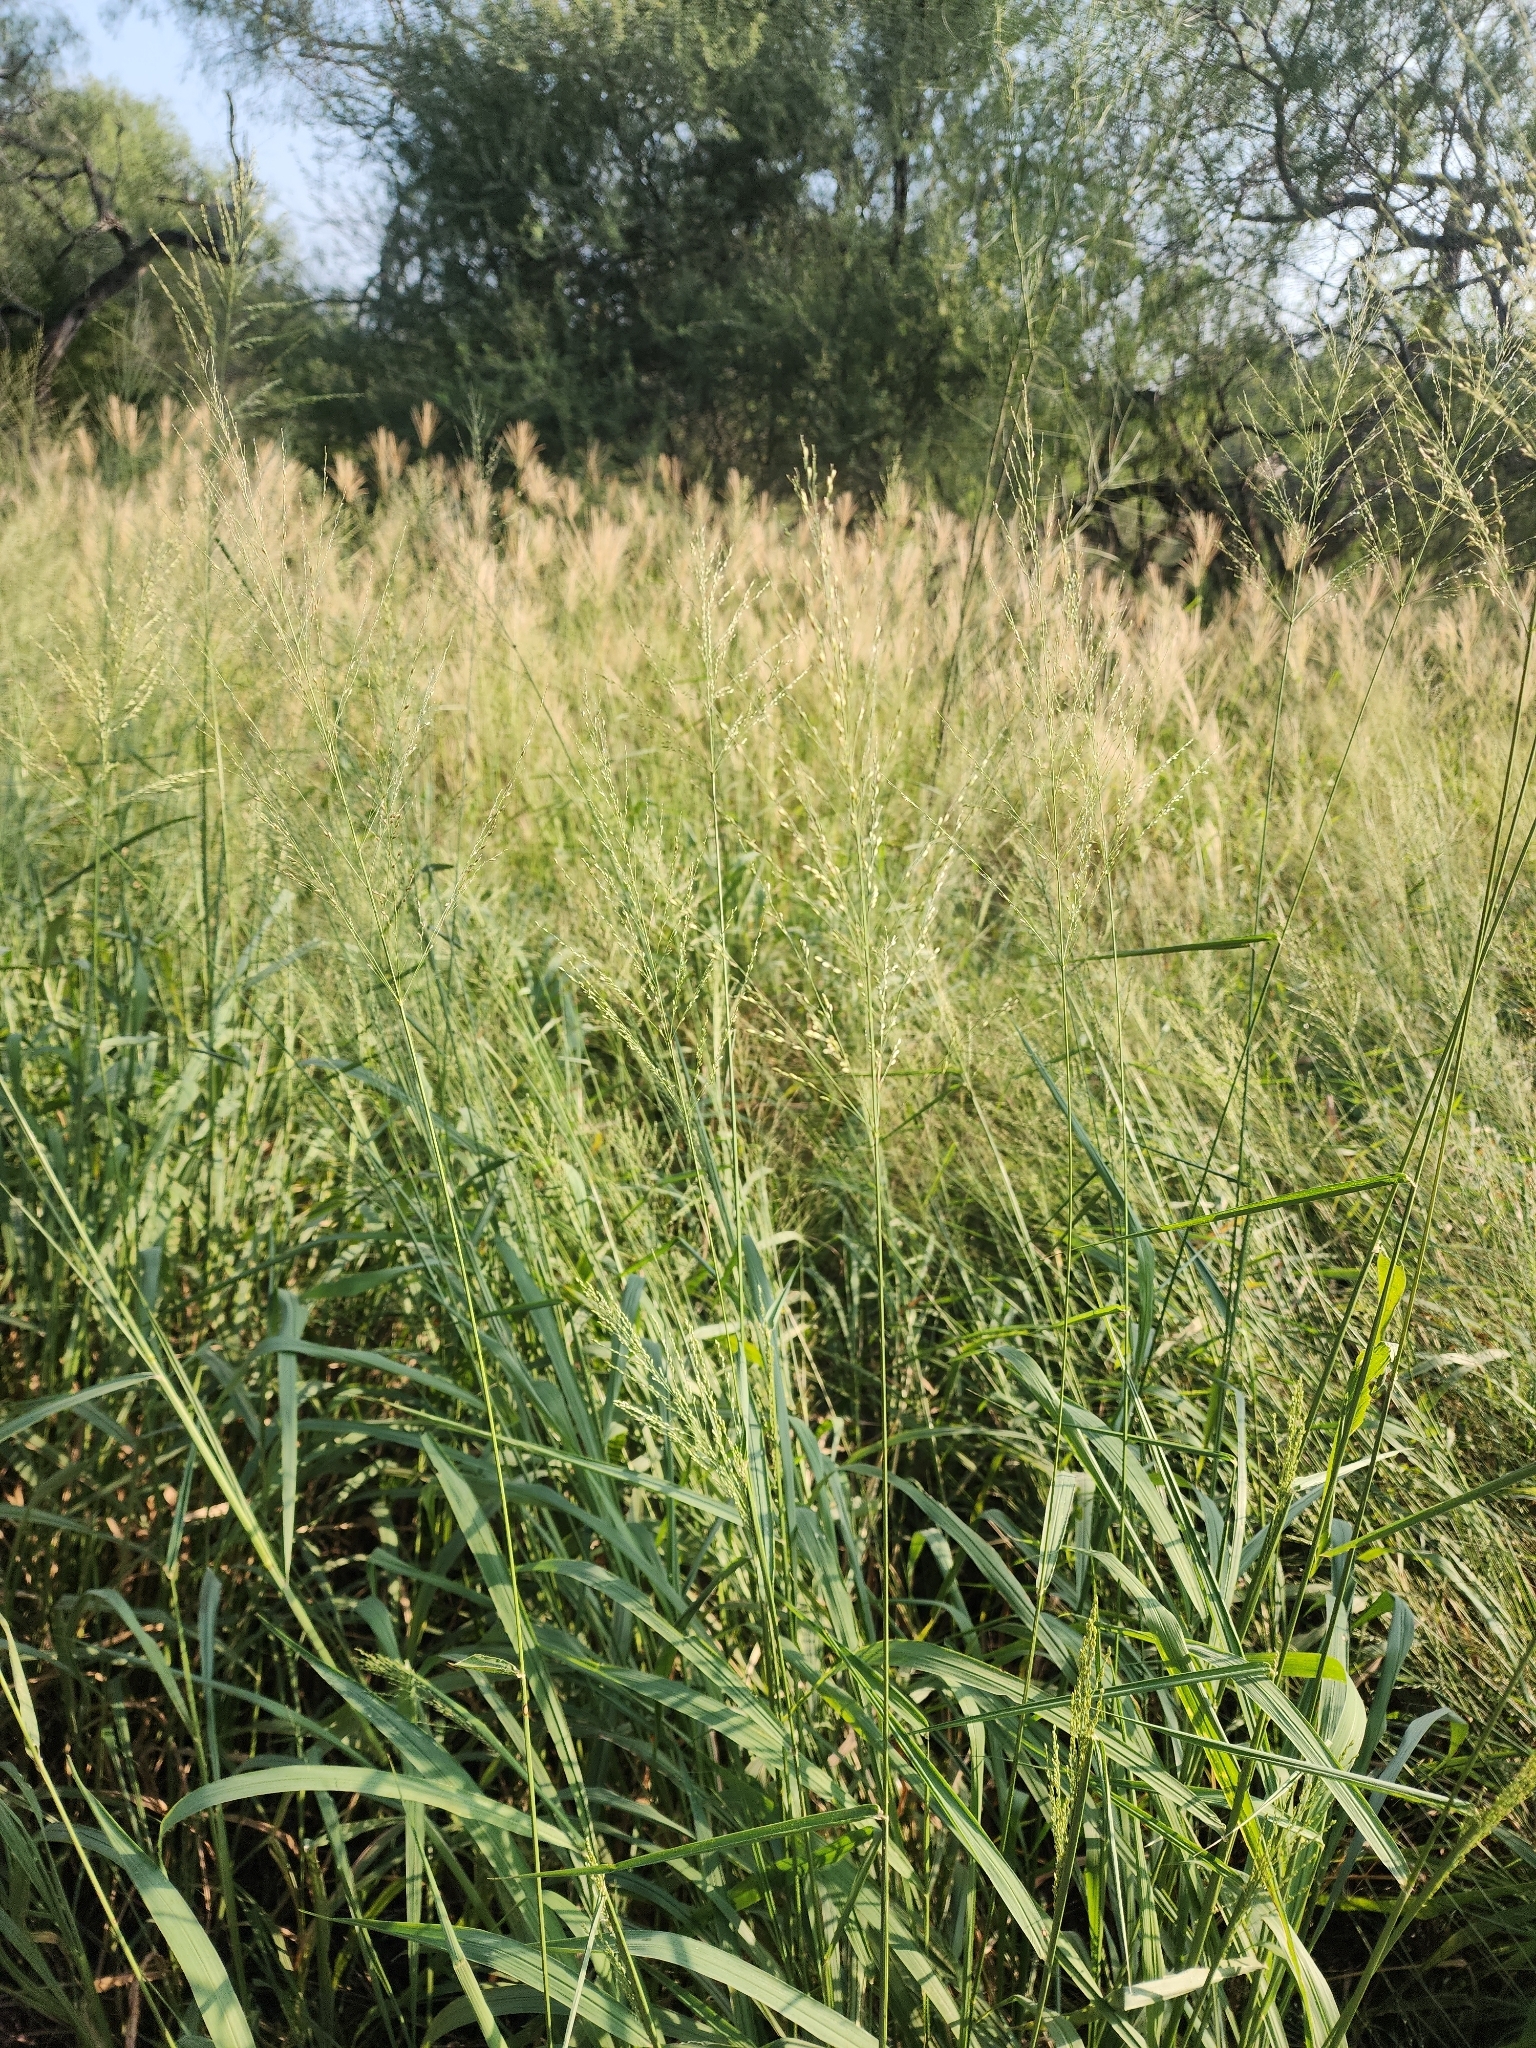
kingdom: Plantae
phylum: Tracheophyta
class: Liliopsida
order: Poales
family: Poaceae
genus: Megathyrsus
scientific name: Megathyrsus maximus
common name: Guineagrass
